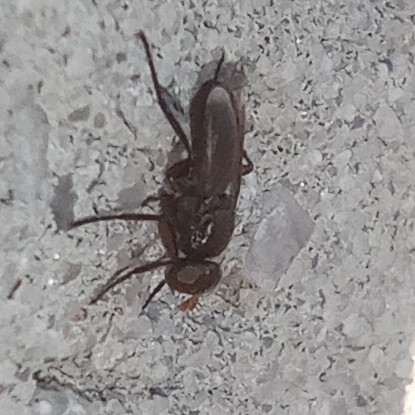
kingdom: Animalia
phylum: Arthropoda
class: Insecta
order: Diptera
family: Calliphoridae
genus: Melanophora
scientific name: Melanophora roralis
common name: Smoky-winged woodlouse-fly
